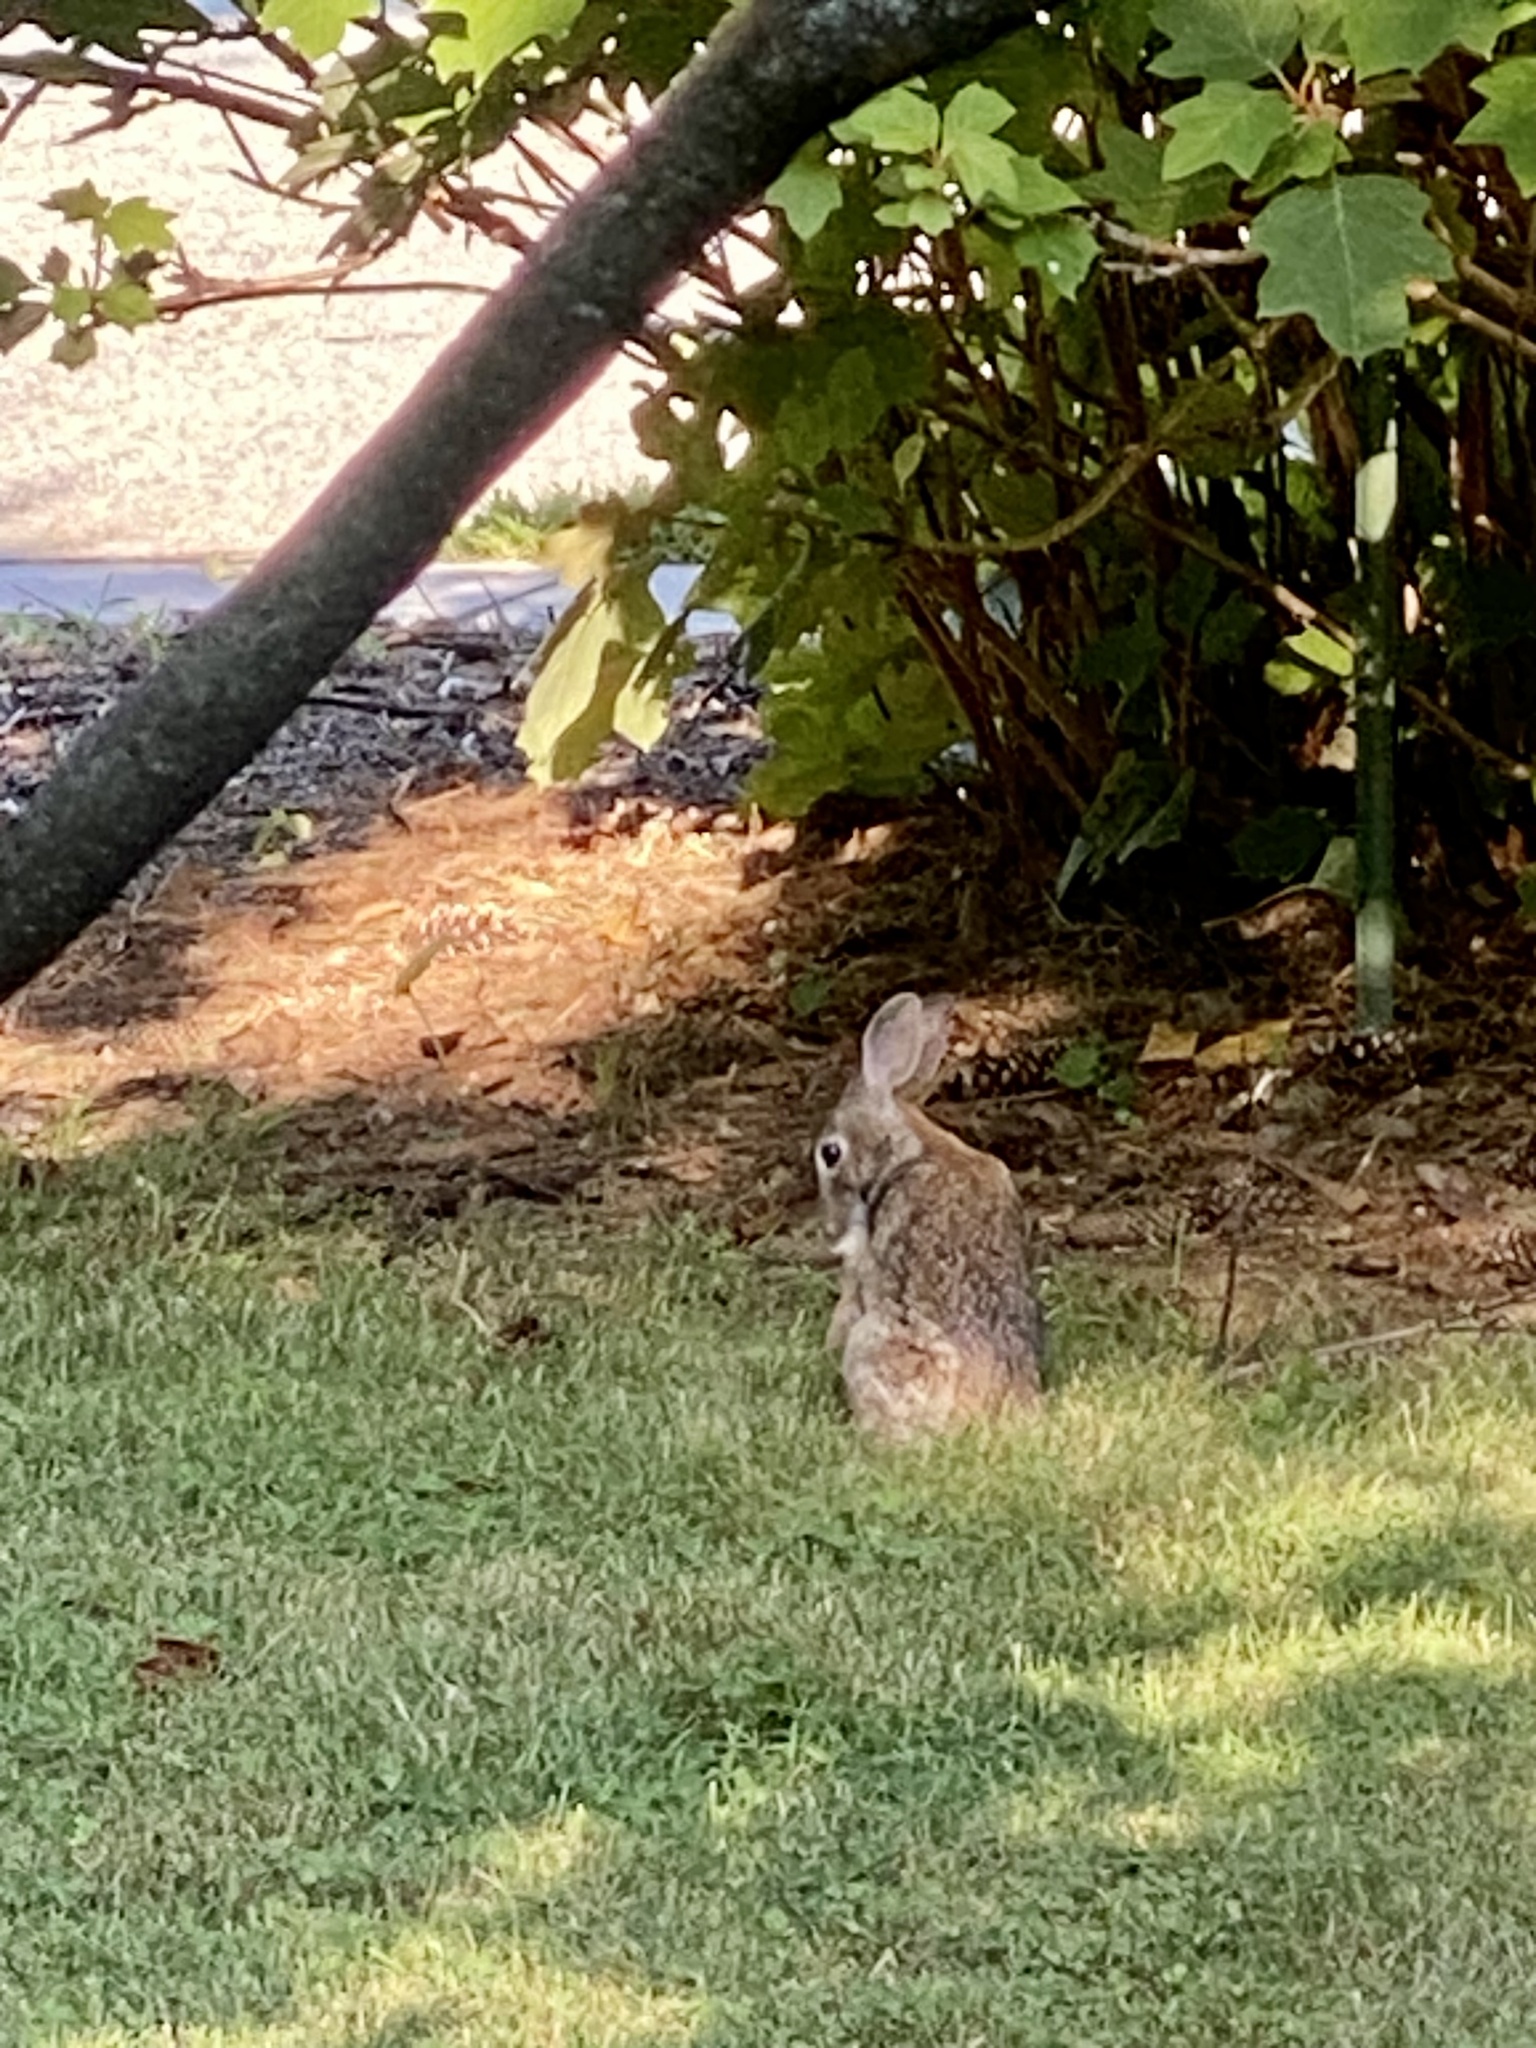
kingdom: Animalia
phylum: Chordata
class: Mammalia
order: Lagomorpha
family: Leporidae
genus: Sylvilagus
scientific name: Sylvilagus floridanus
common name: Eastern cottontail
